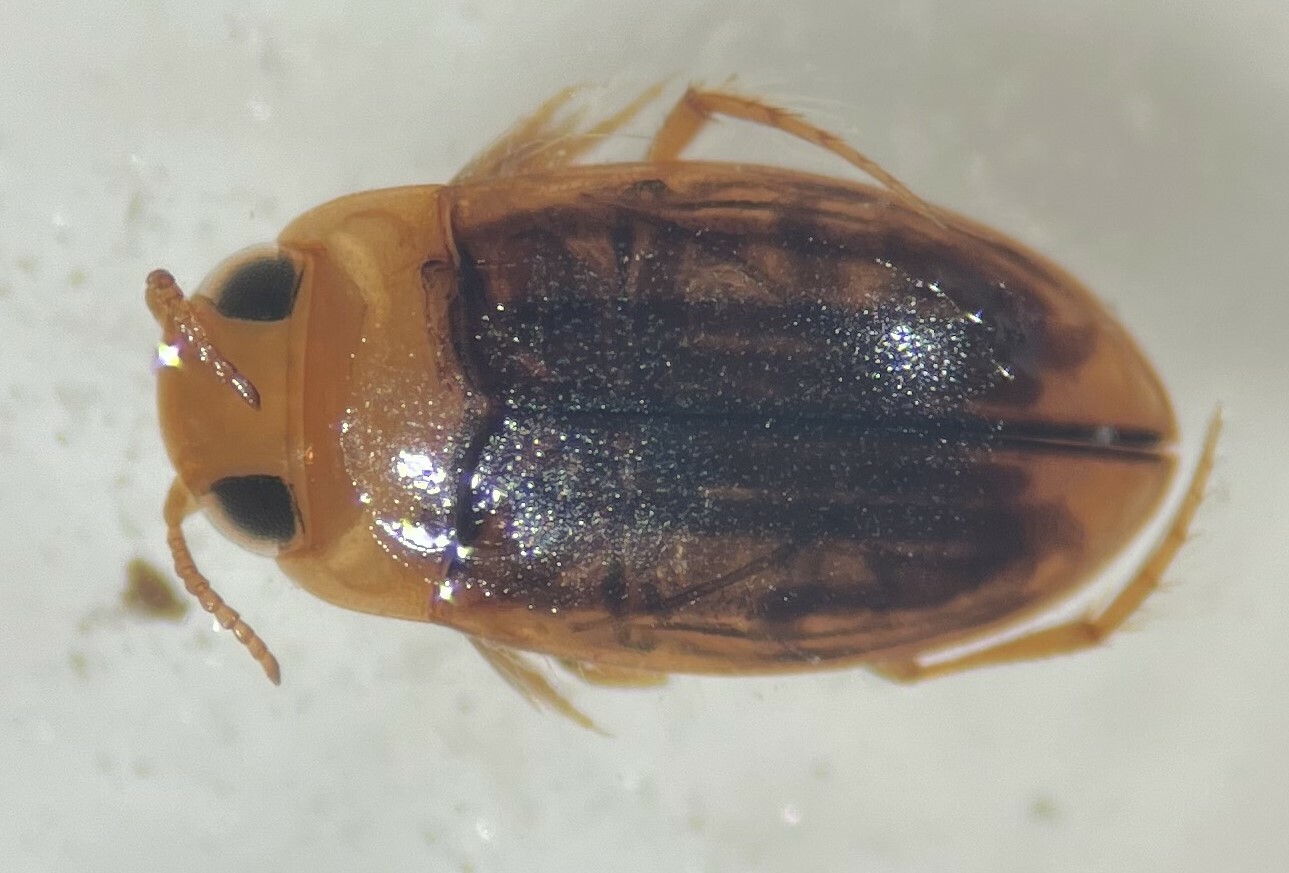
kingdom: Animalia
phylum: Arthropoda
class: Insecta
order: Coleoptera
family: Dytiscidae
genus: Neobidessus
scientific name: Neobidessus pullus
